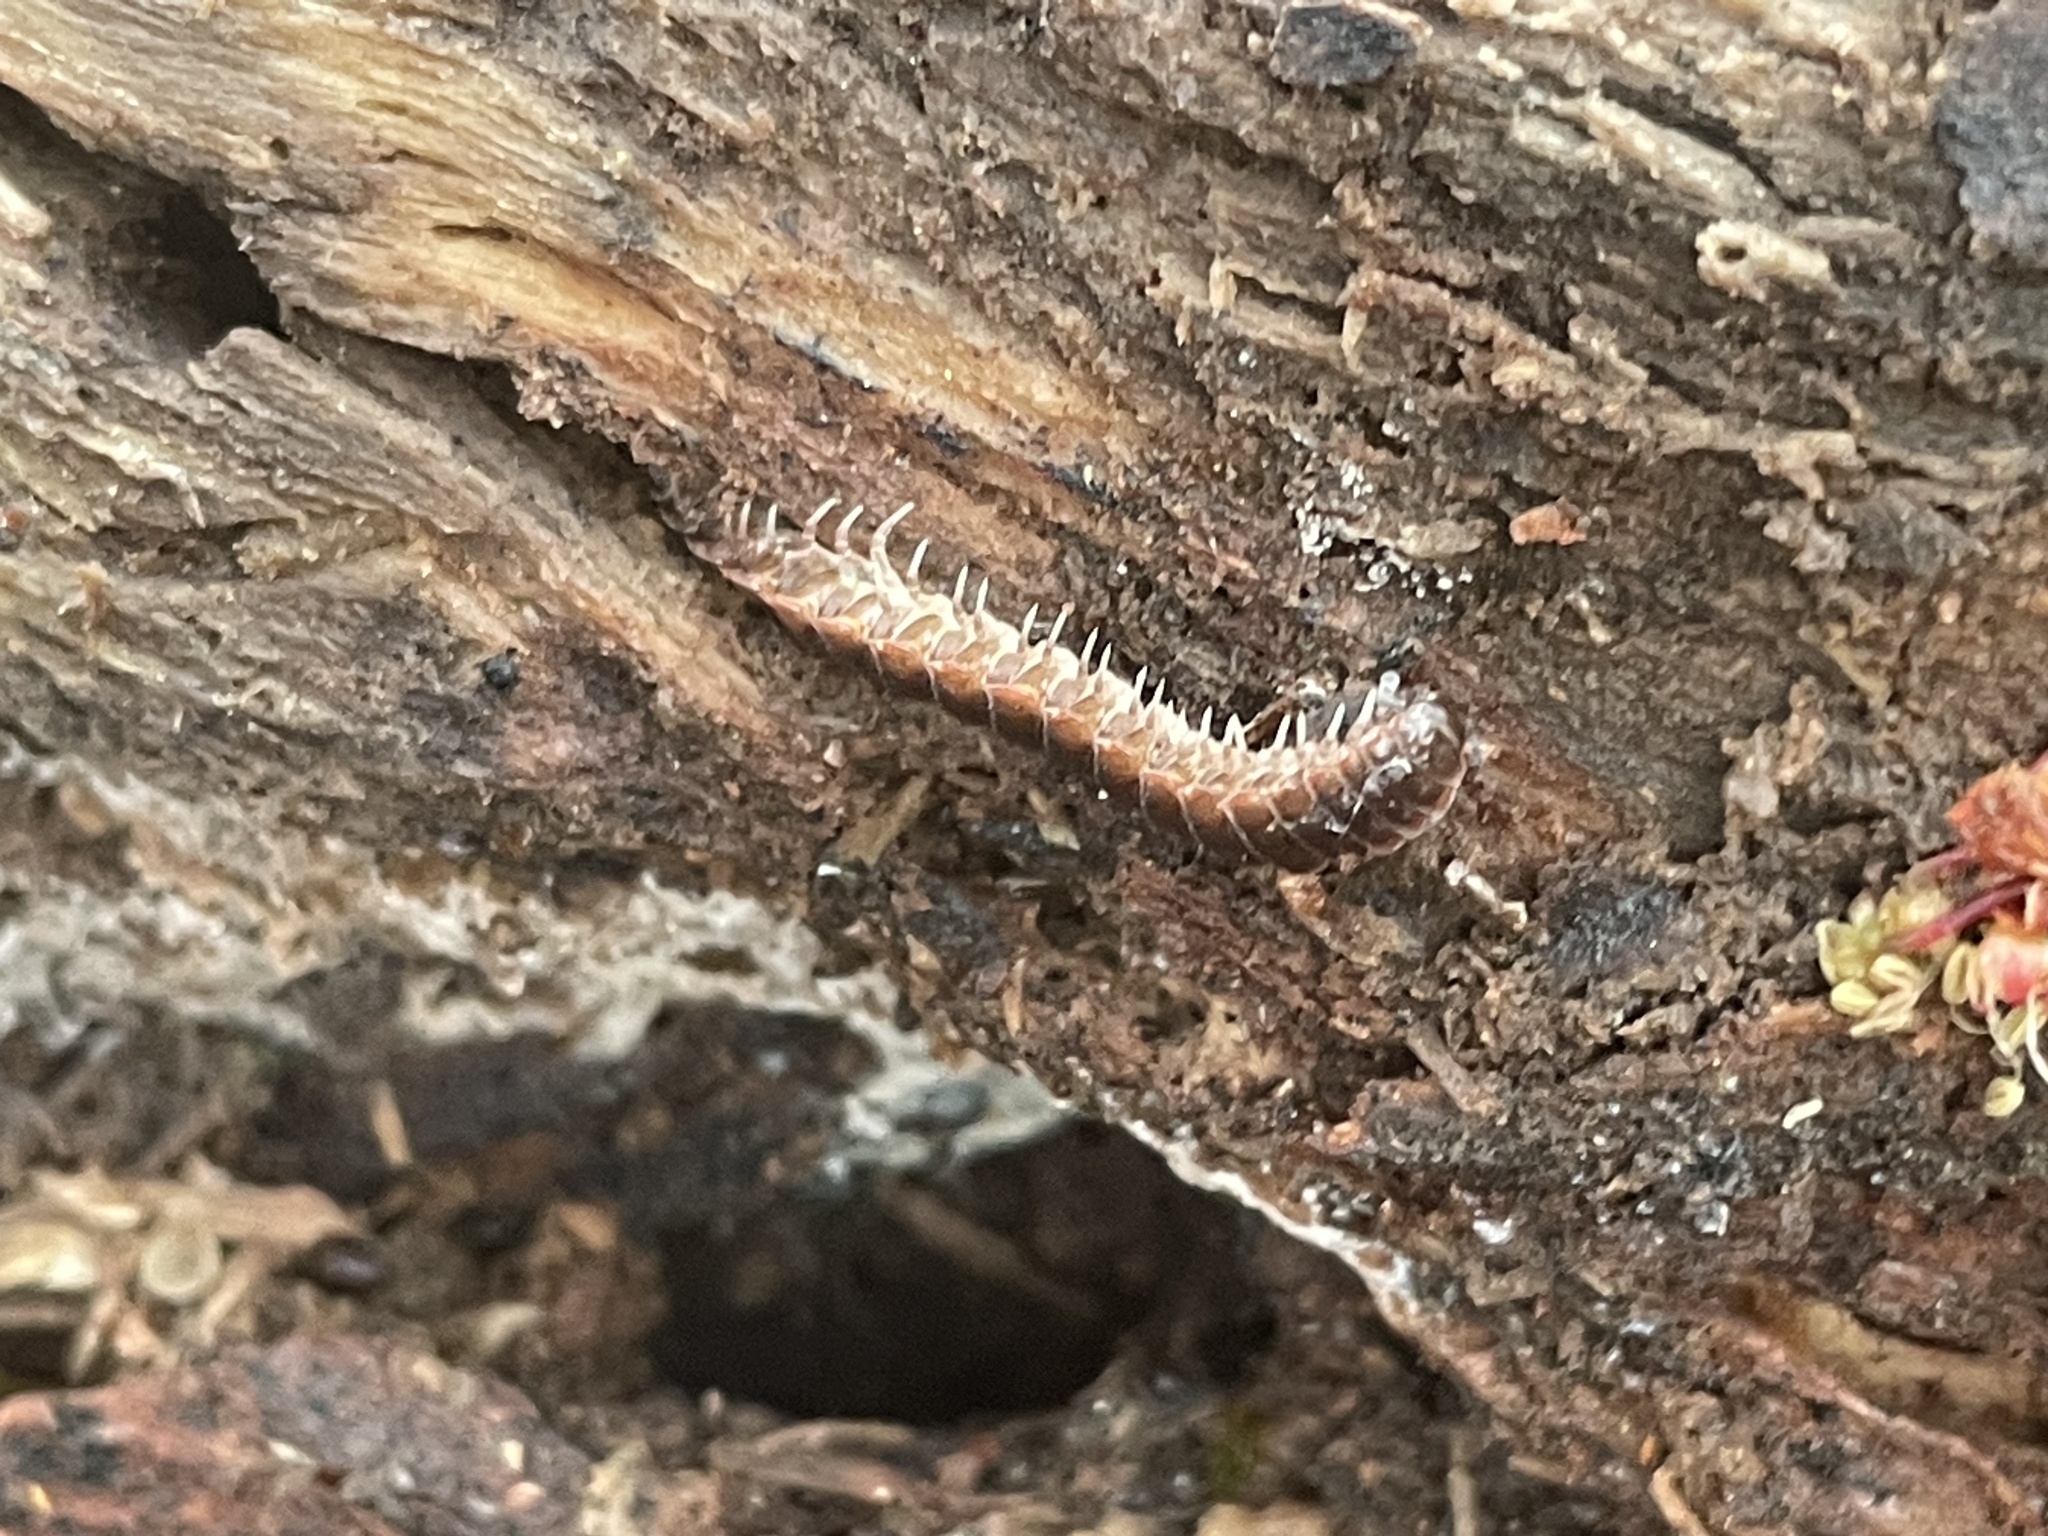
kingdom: Animalia
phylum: Arthropoda
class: Diplopoda
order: Polydesmida
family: Polydesmidae
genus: Pseudopolydesmus
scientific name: Pseudopolydesmus serratus
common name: Common pink flat-back millipede
